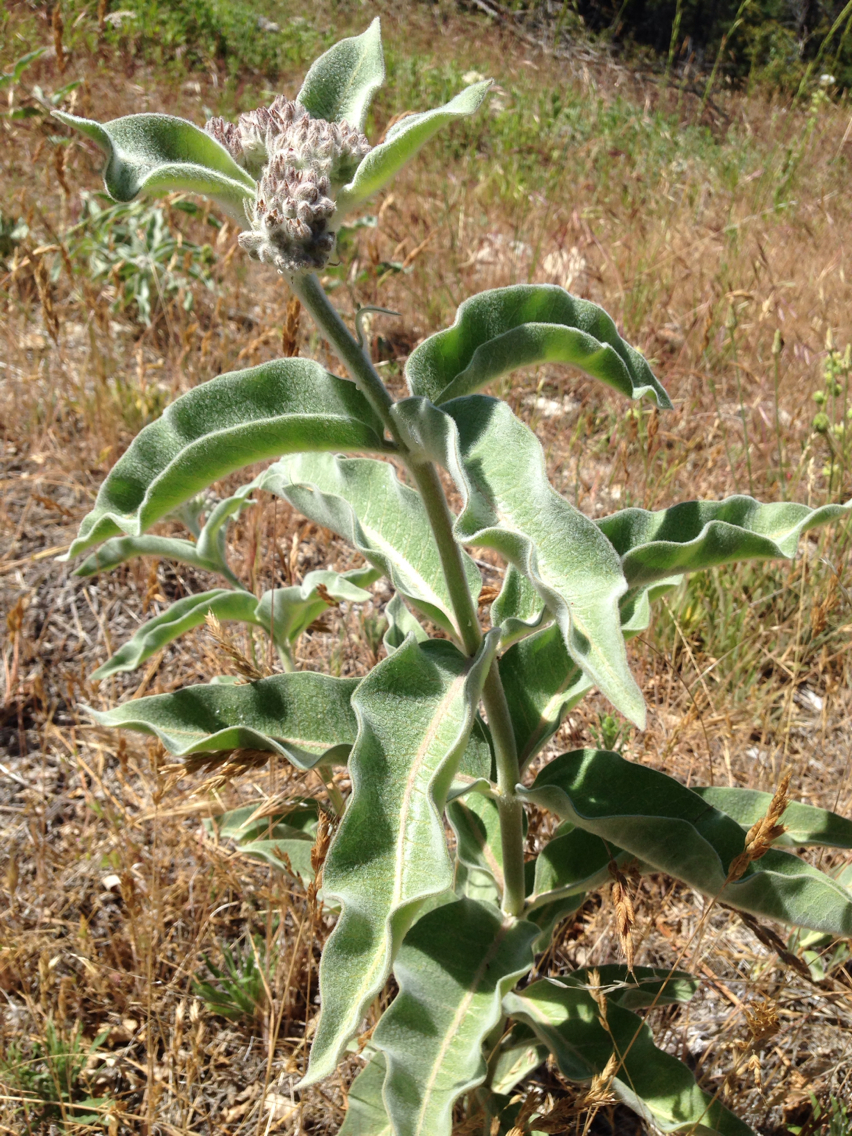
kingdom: Plantae
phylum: Tracheophyta
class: Magnoliopsida
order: Gentianales
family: Apocynaceae
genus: Asclepias
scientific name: Asclepias eriocarpa
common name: Indian milkweed
